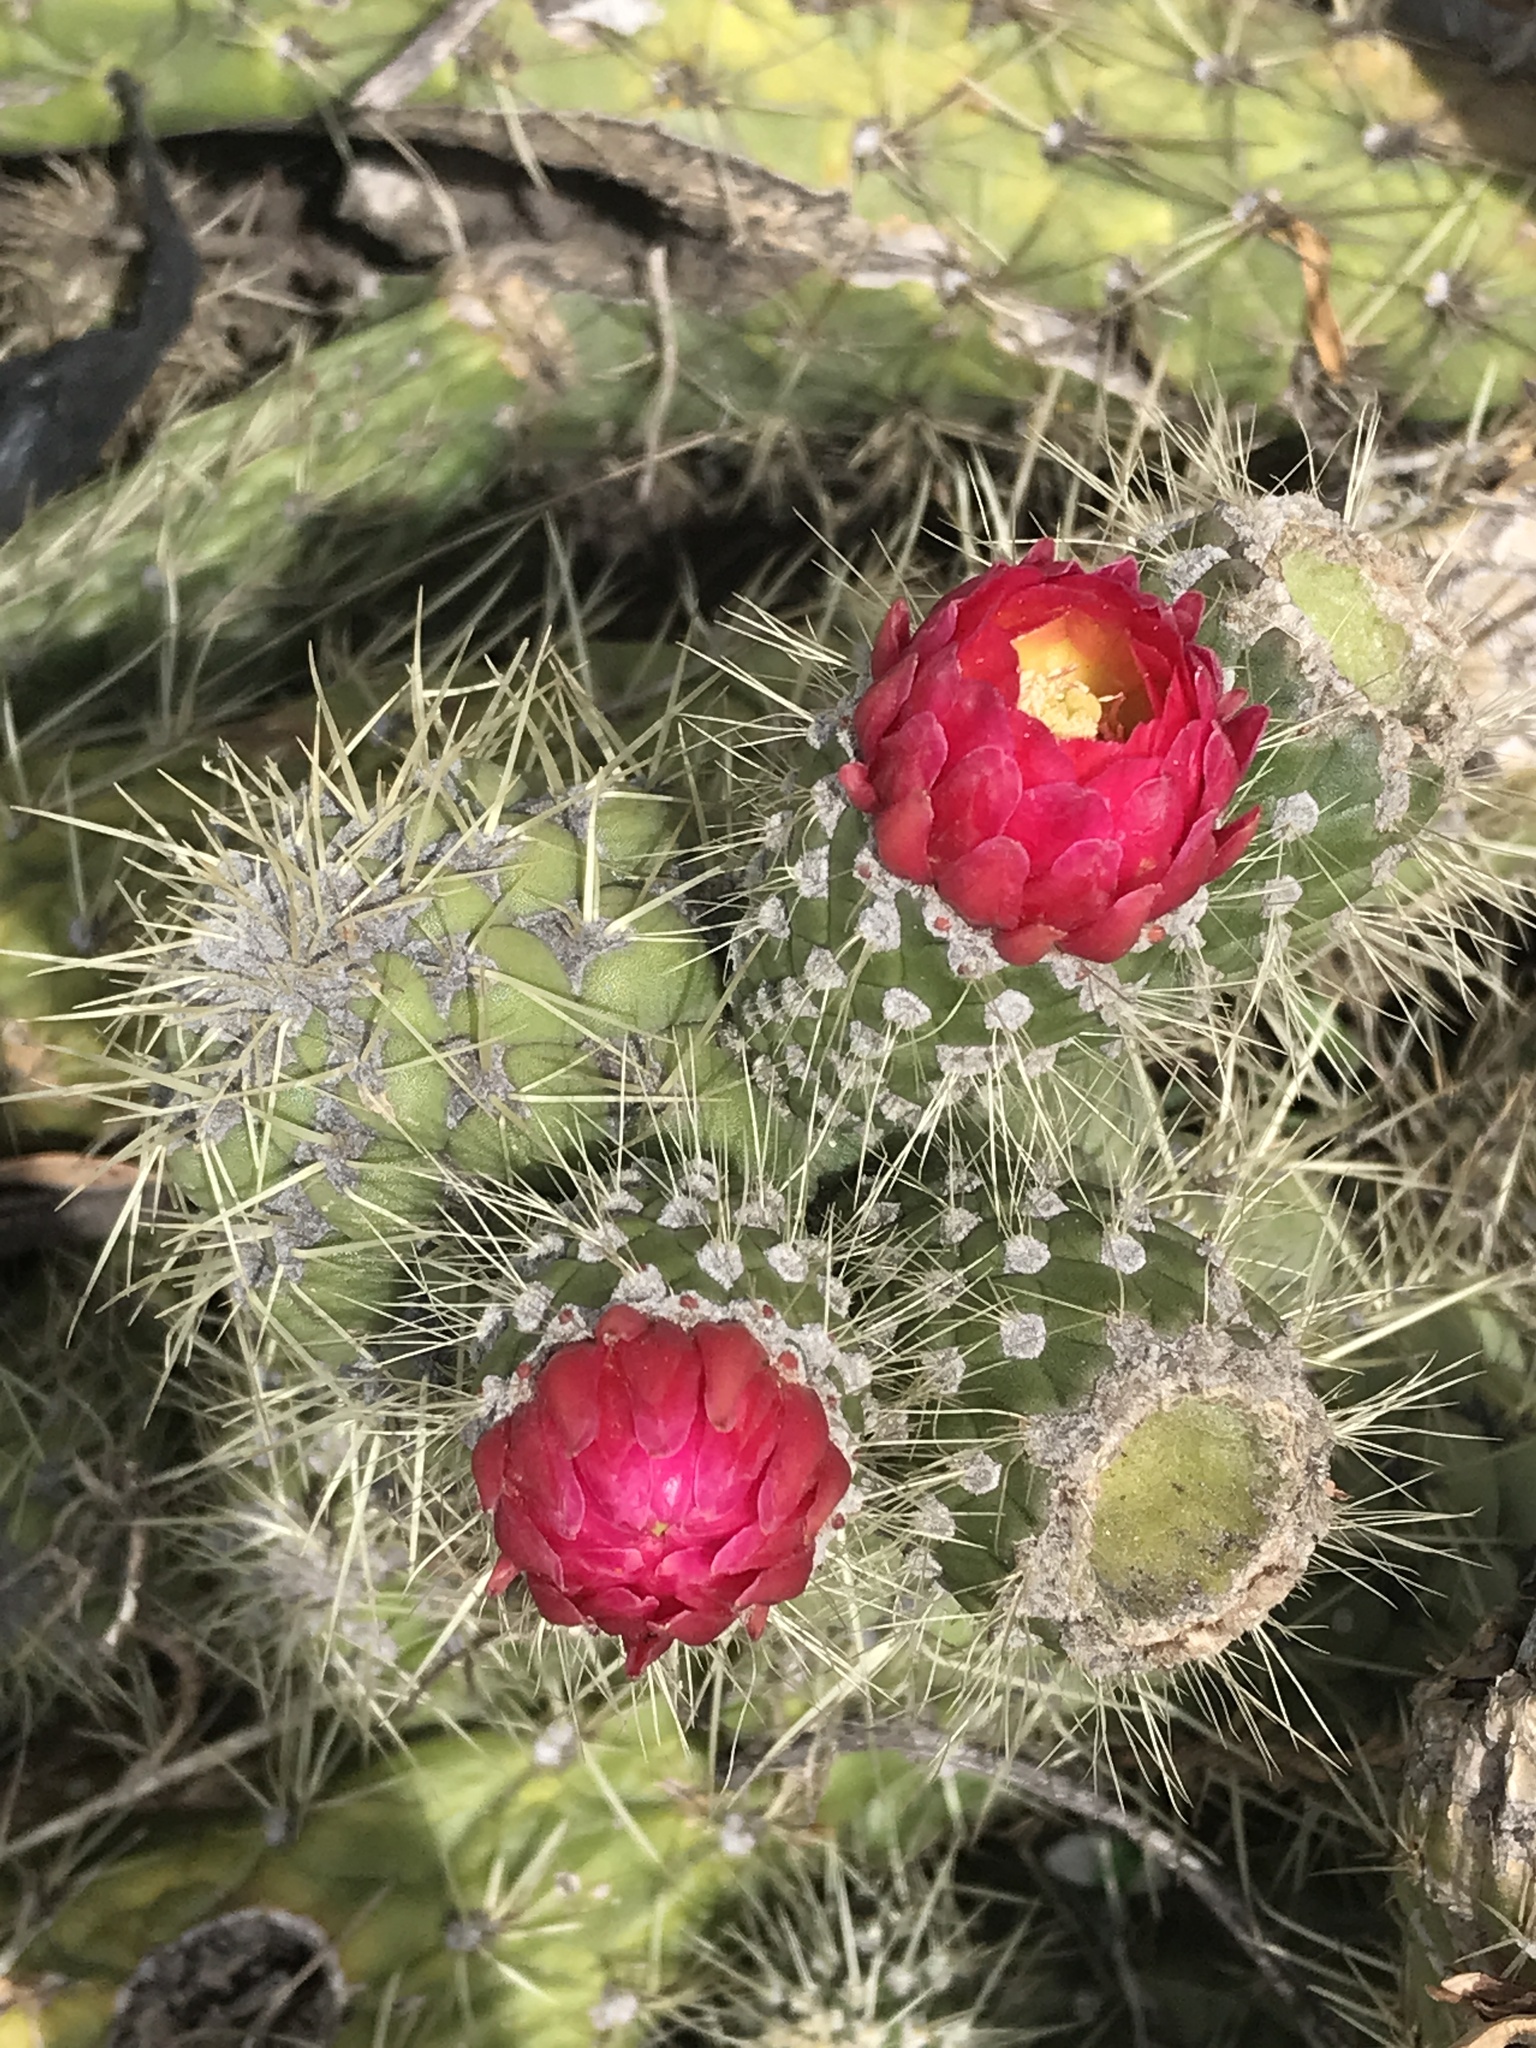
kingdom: Plantae
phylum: Tracheophyta
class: Magnoliopsida
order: Caryophyllales
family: Cactaceae
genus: Austrocylindropuntia
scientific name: Austrocylindropuntia cylindrica
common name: Cane cactus
